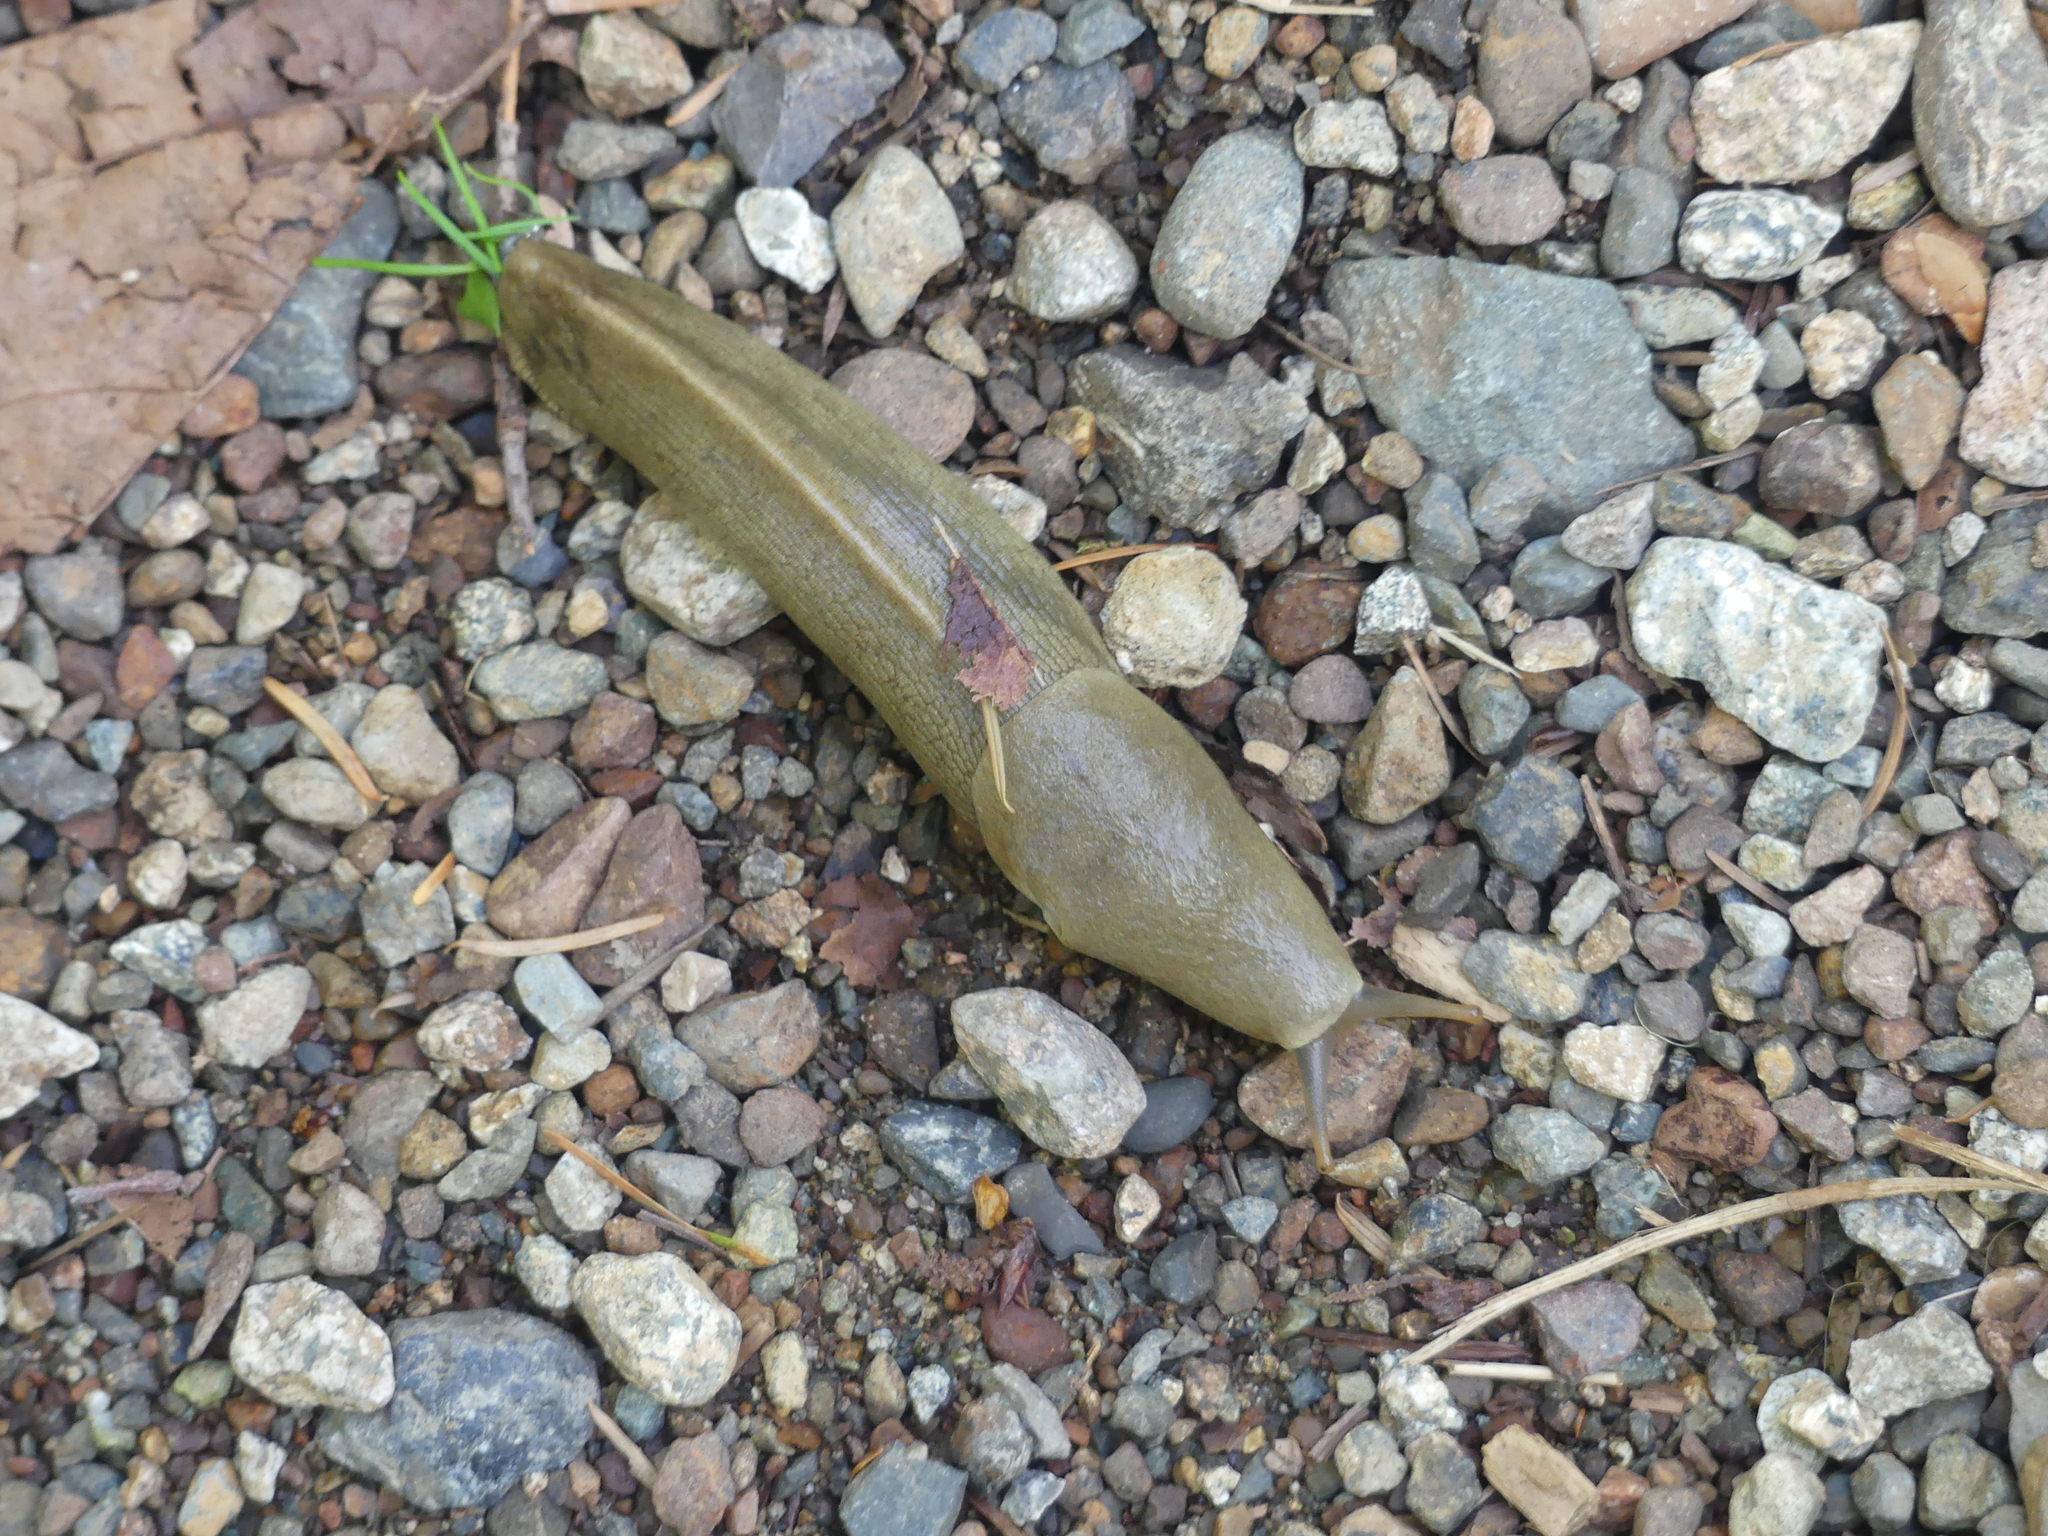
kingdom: Animalia
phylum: Mollusca
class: Gastropoda
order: Stylommatophora
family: Ariolimacidae
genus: Ariolimax
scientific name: Ariolimax columbianus
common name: Pacific banana slug
